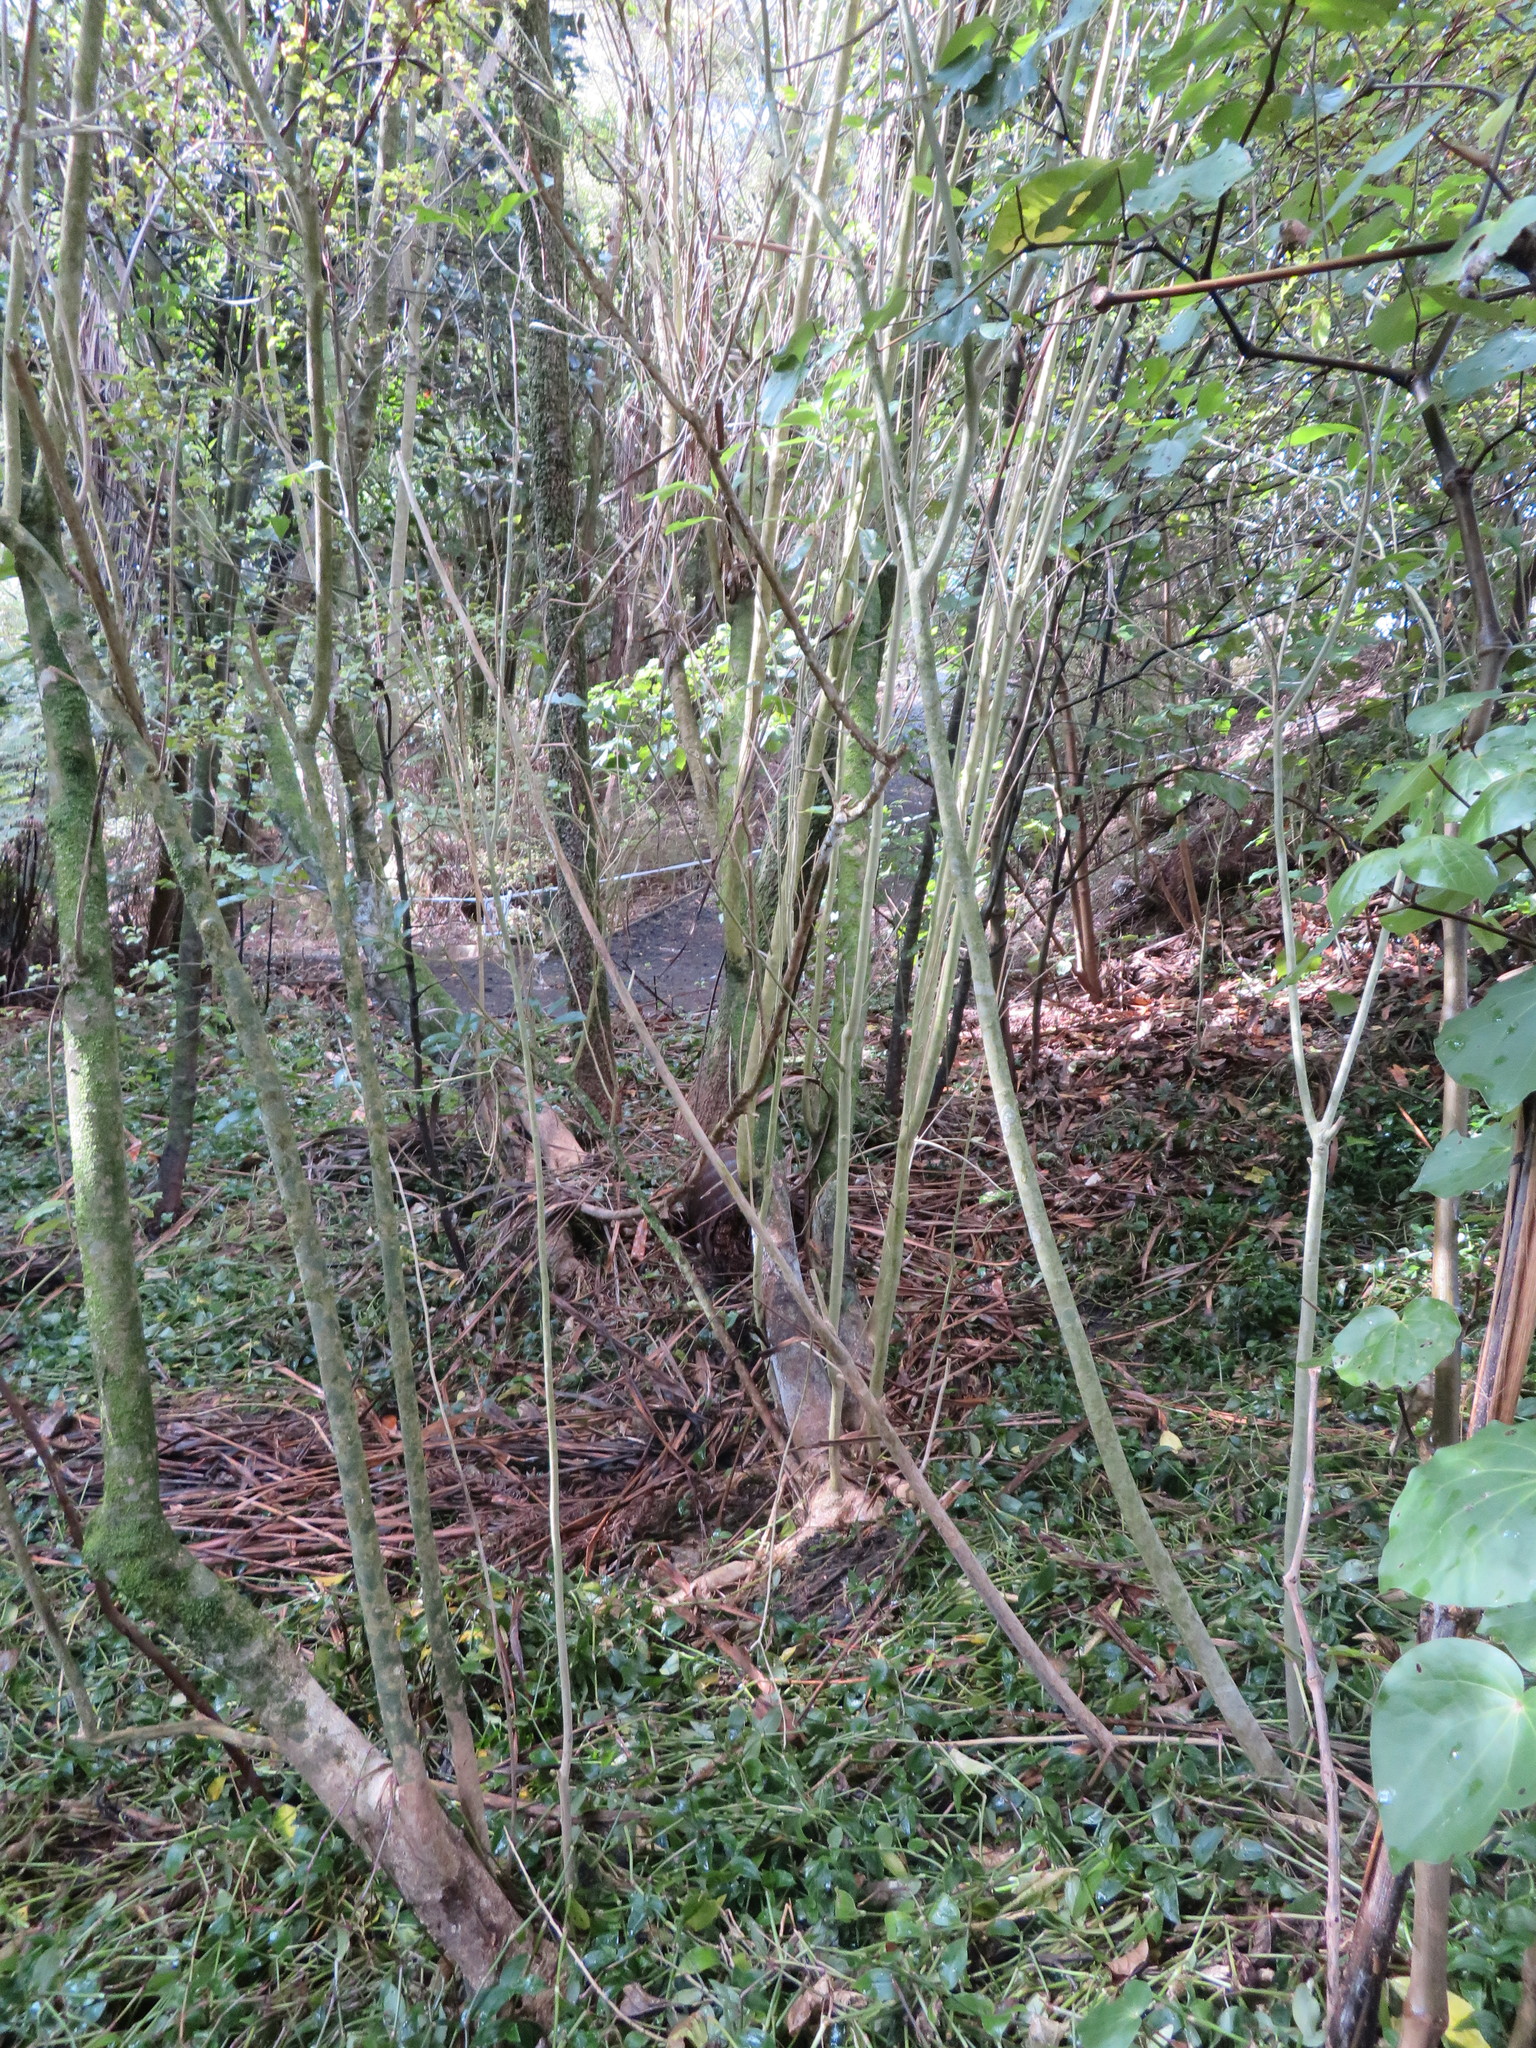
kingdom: Plantae
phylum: Tracheophyta
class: Liliopsida
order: Commelinales
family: Commelinaceae
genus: Tradescantia
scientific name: Tradescantia fluminensis
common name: Wandering-jew
